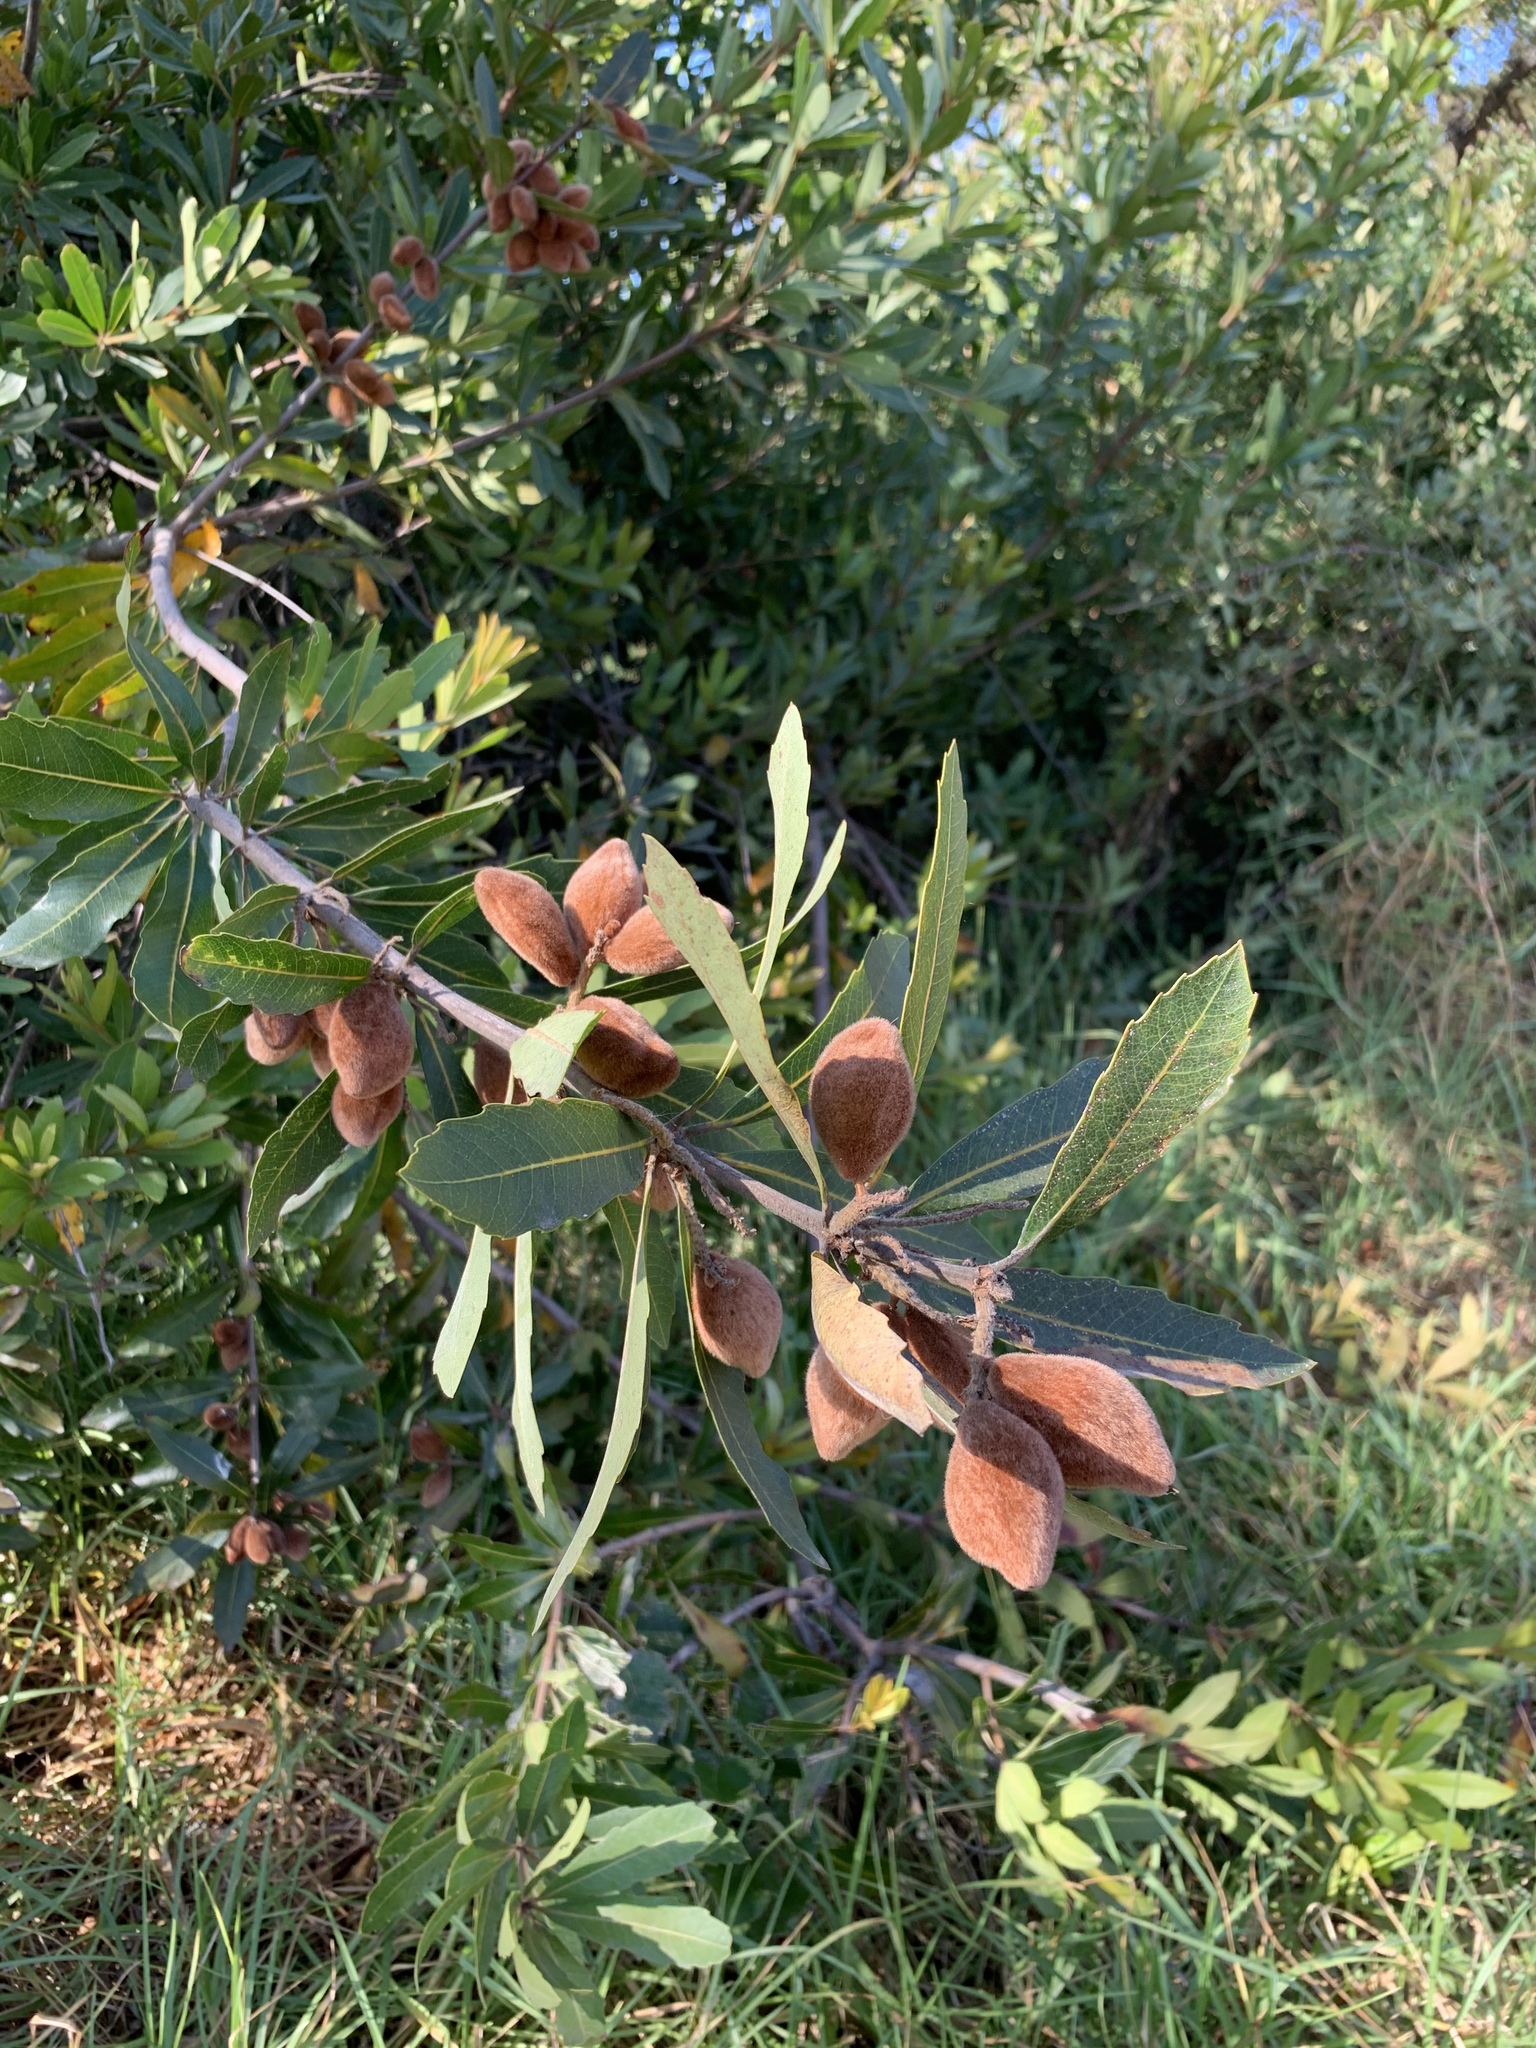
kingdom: Plantae
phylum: Tracheophyta
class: Magnoliopsida
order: Proteales
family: Proteaceae
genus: Brabejum
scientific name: Brabejum stellatifolium
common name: Wild almond
